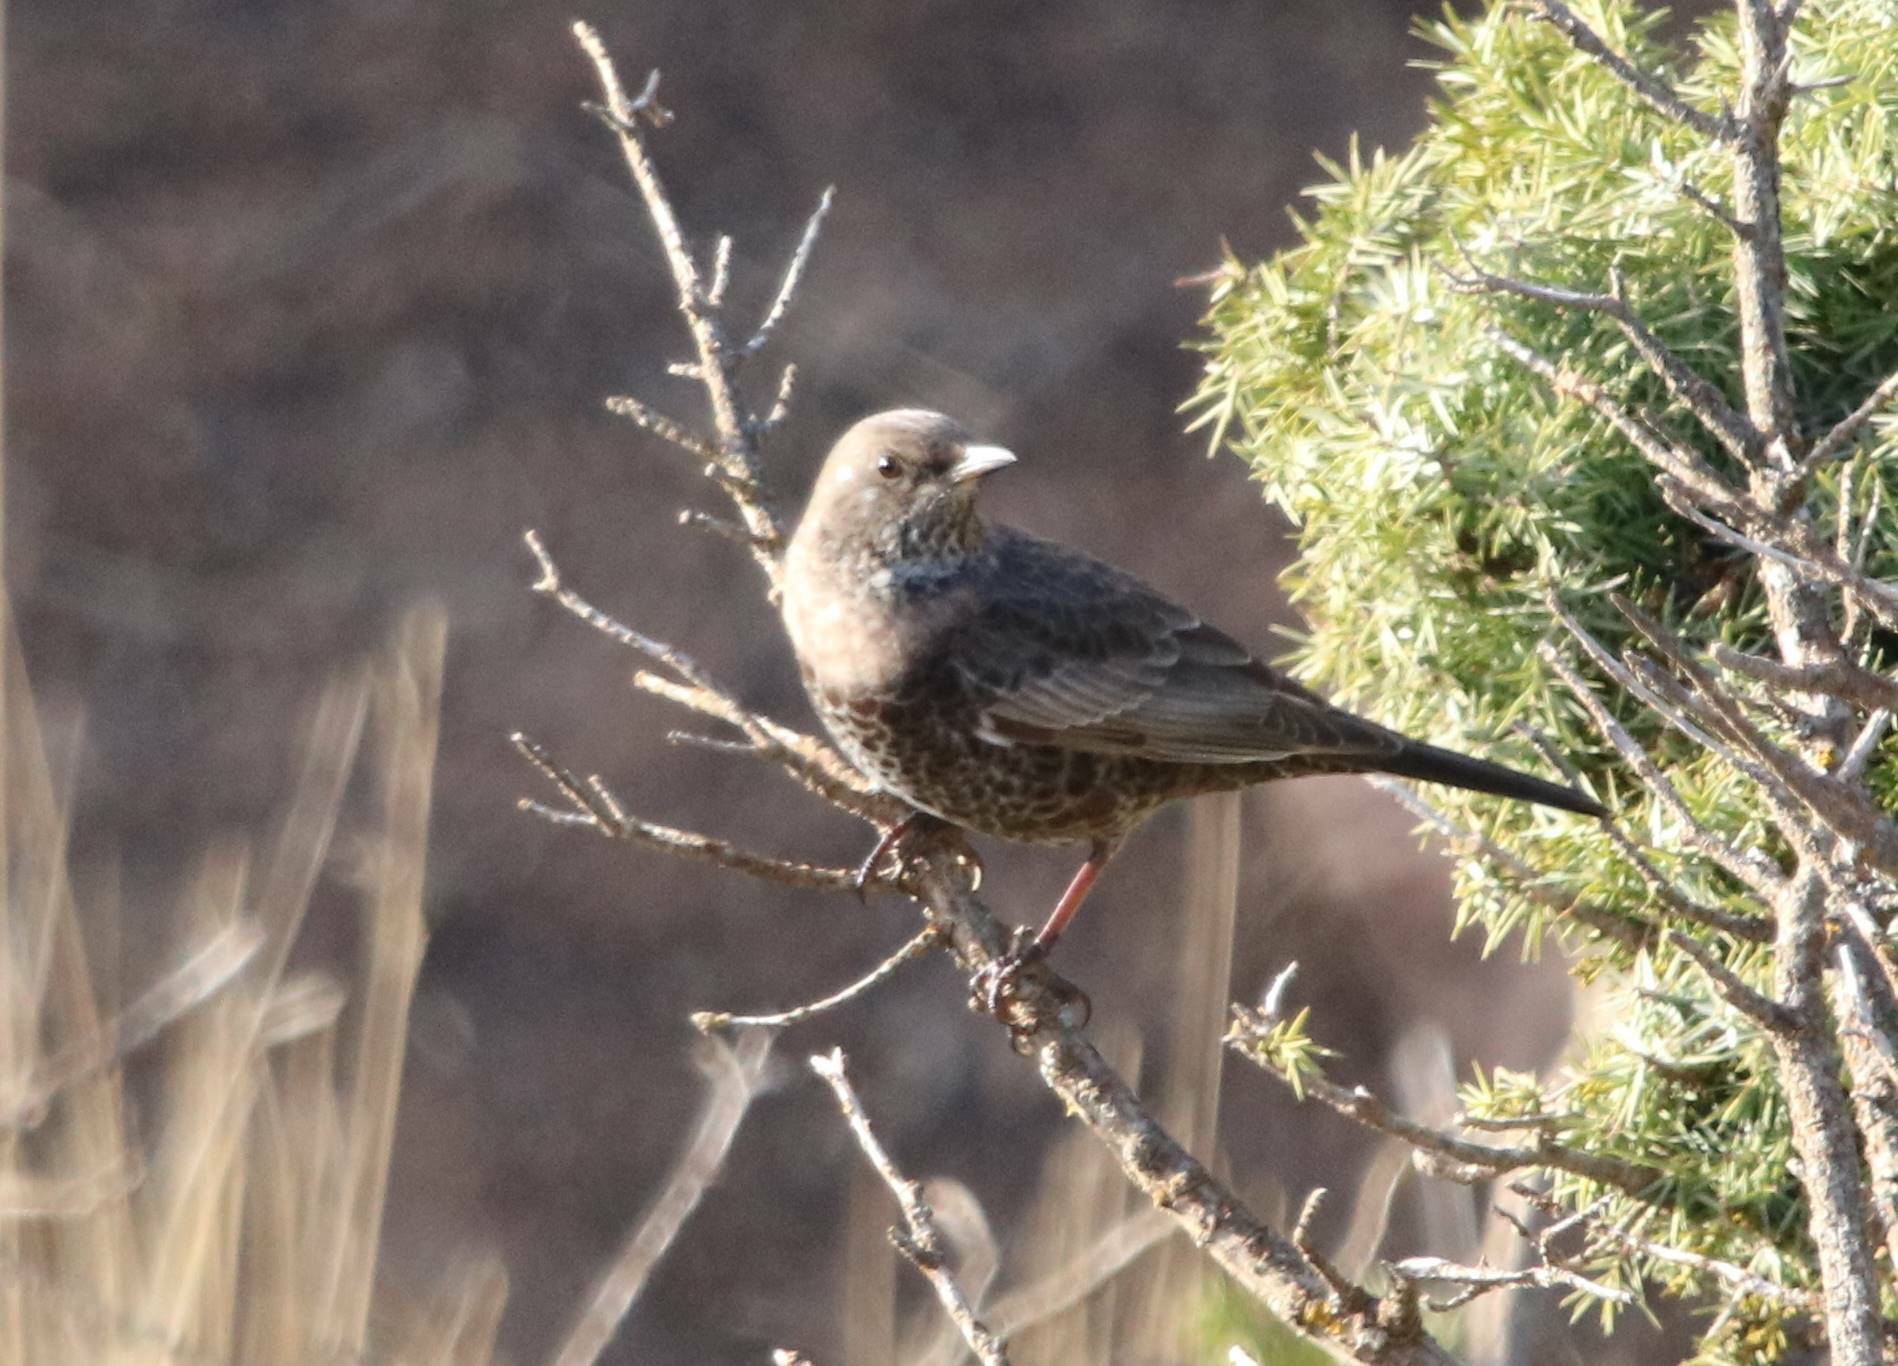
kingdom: Animalia
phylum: Chordata
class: Aves
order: Passeriformes
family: Turdidae
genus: Turdus
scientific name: Turdus torquatus
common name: Ring ouzel
